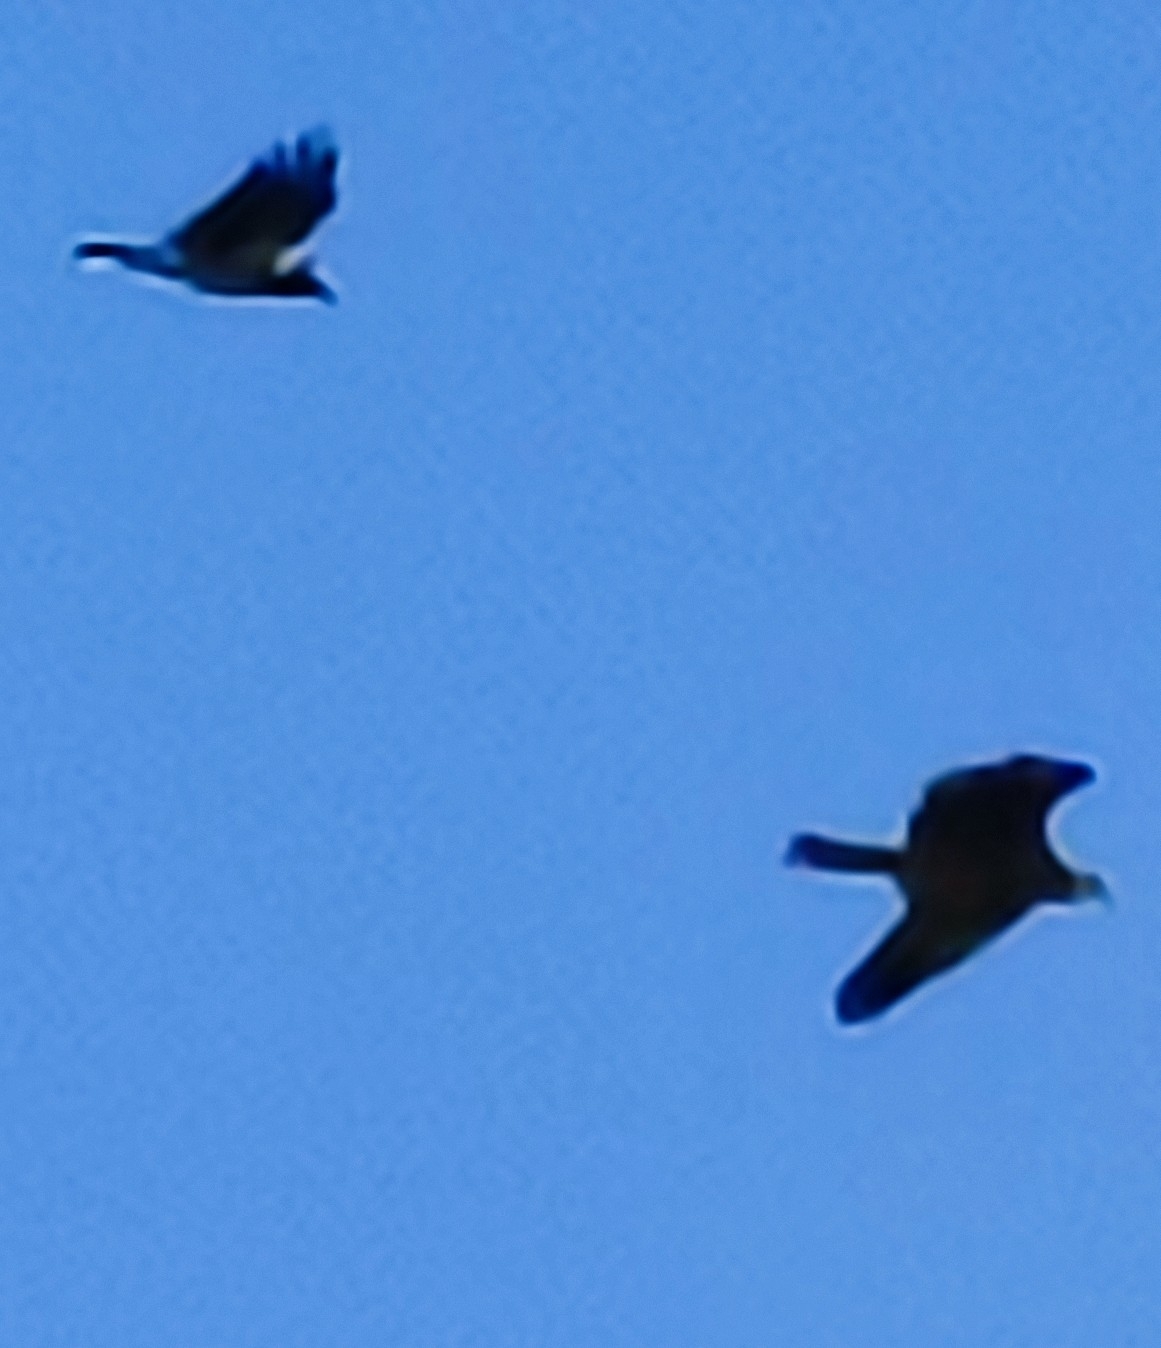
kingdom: Animalia
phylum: Chordata
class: Aves
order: Passeriformes
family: Corvidae
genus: Corvus
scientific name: Corvus cornix
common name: Hooded crow
